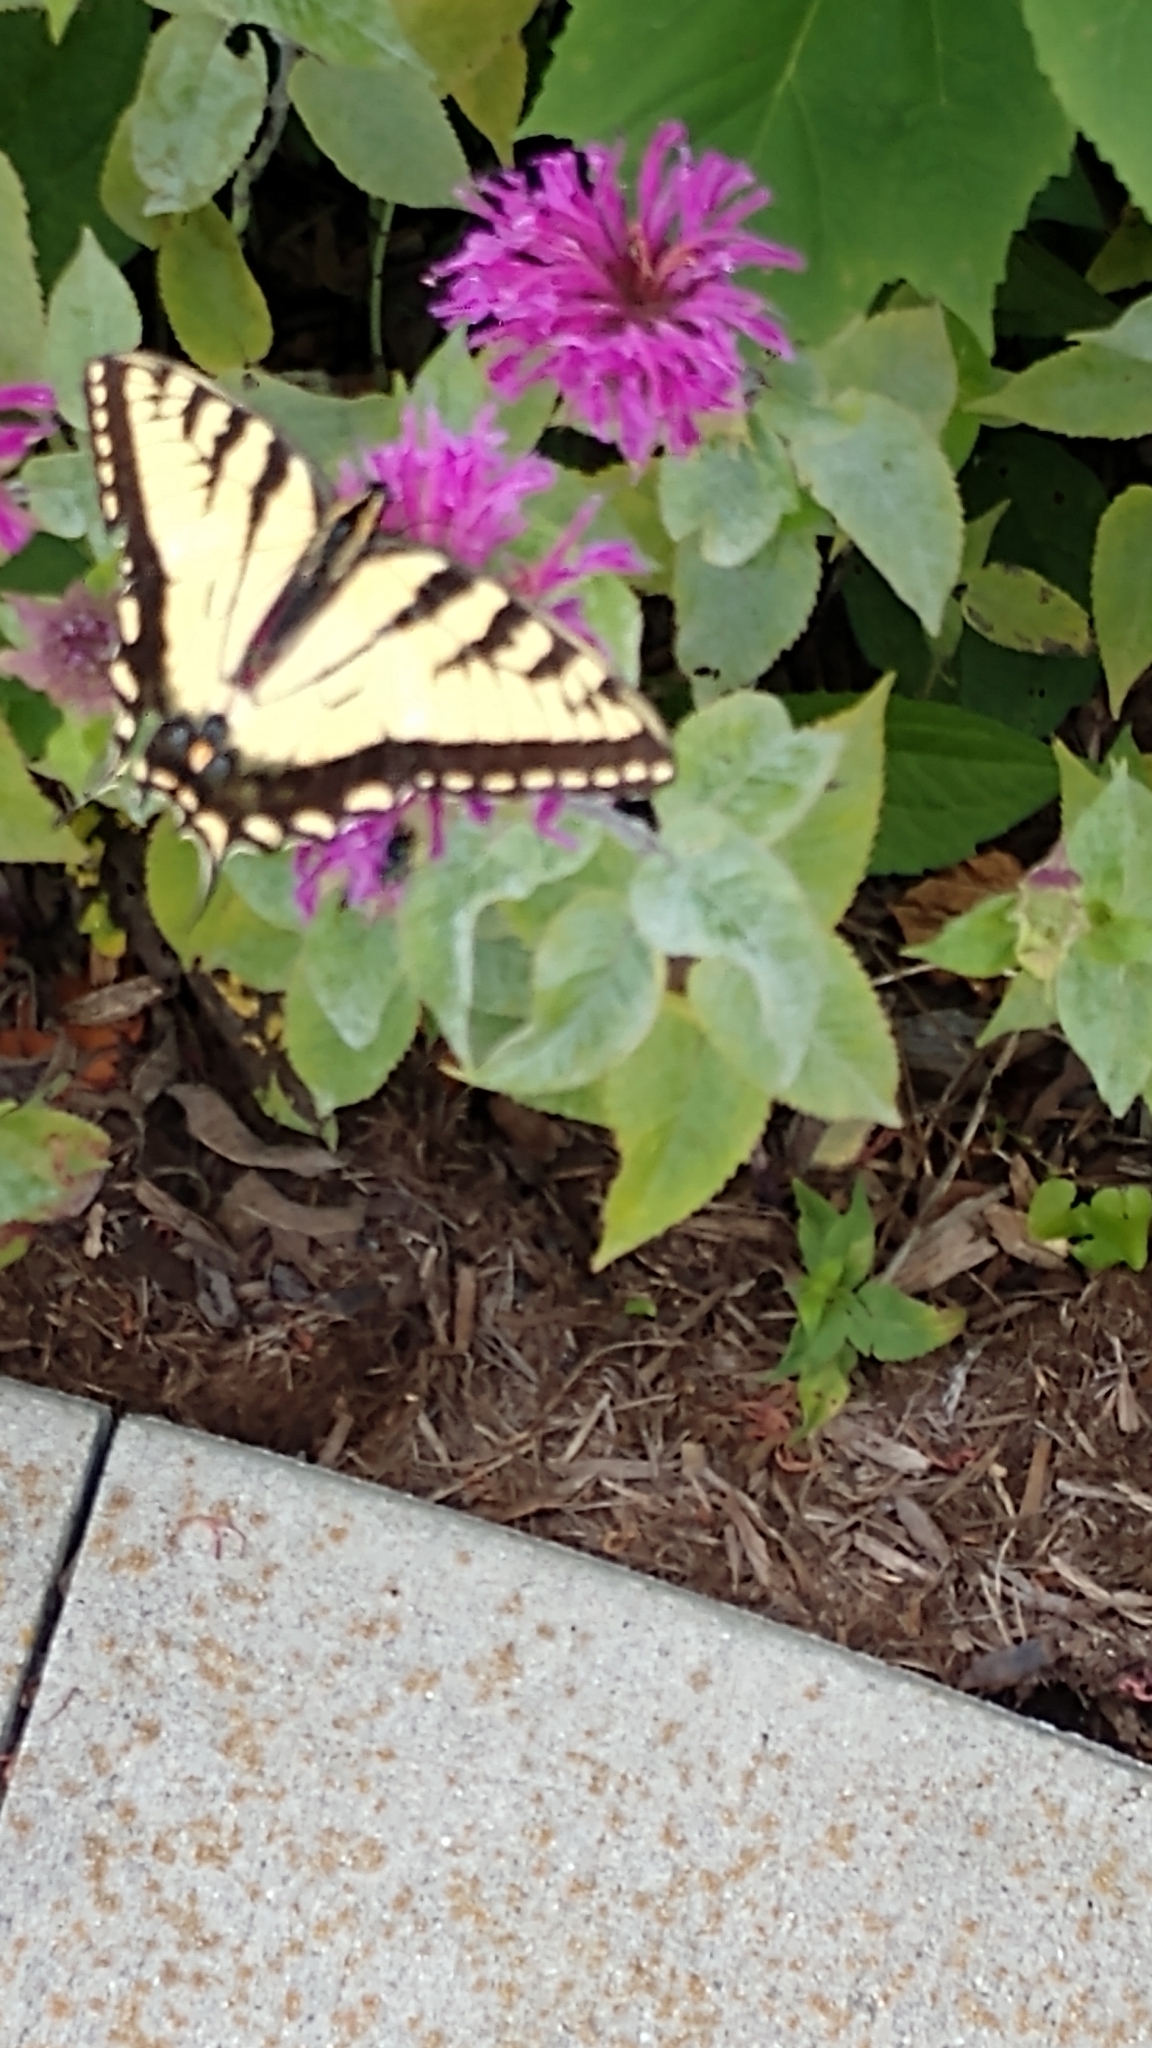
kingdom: Animalia
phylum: Arthropoda
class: Insecta
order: Lepidoptera
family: Papilionidae
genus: Papilio
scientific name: Papilio glaucus
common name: Tiger swallowtail
